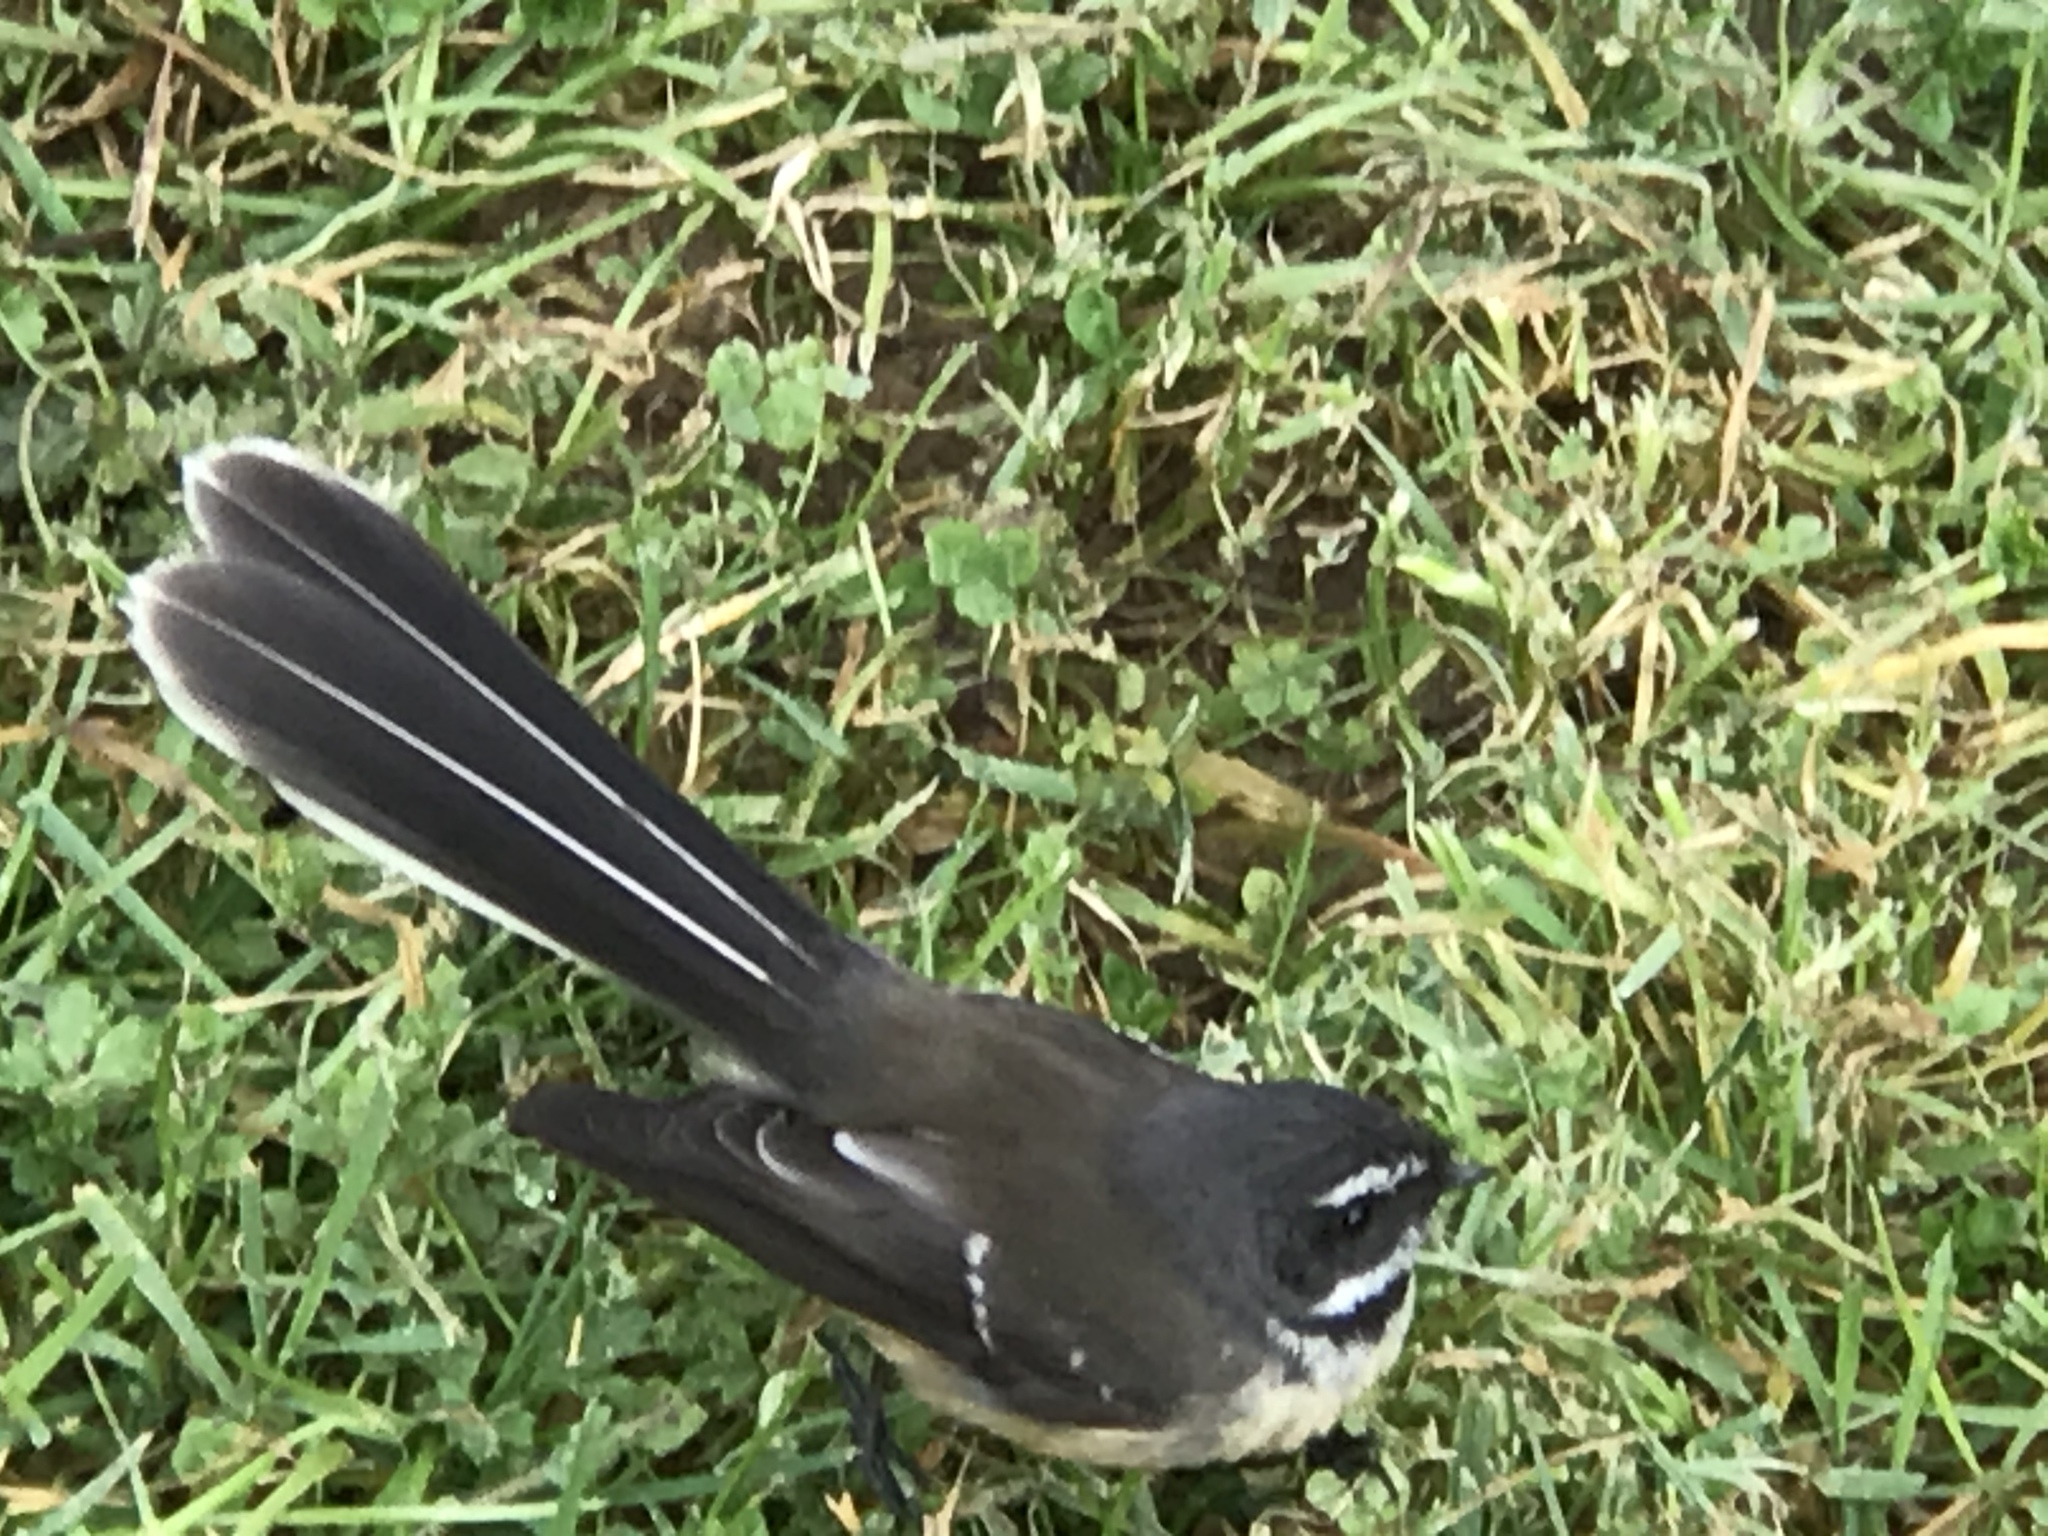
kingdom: Animalia
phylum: Chordata
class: Aves
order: Passeriformes
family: Rhipiduridae
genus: Rhipidura
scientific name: Rhipidura fuliginosa
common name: New zealand fantail
